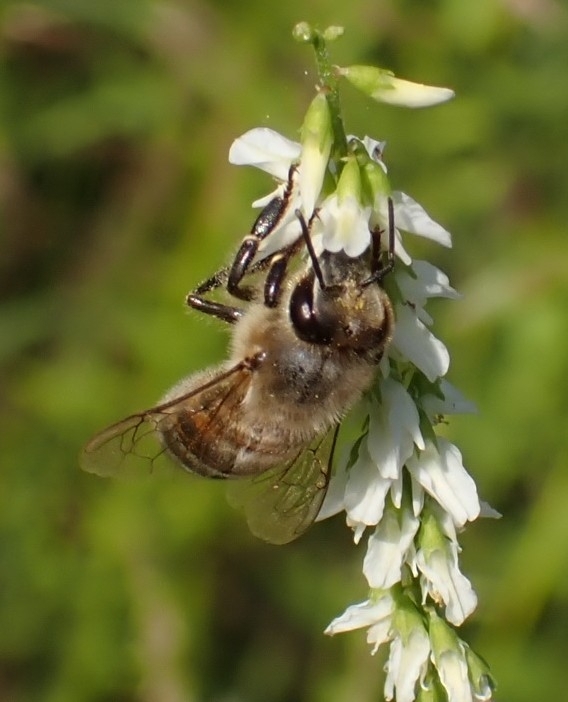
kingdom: Animalia
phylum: Arthropoda
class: Insecta
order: Hymenoptera
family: Apidae
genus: Apis
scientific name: Apis mellifera
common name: Honey bee
